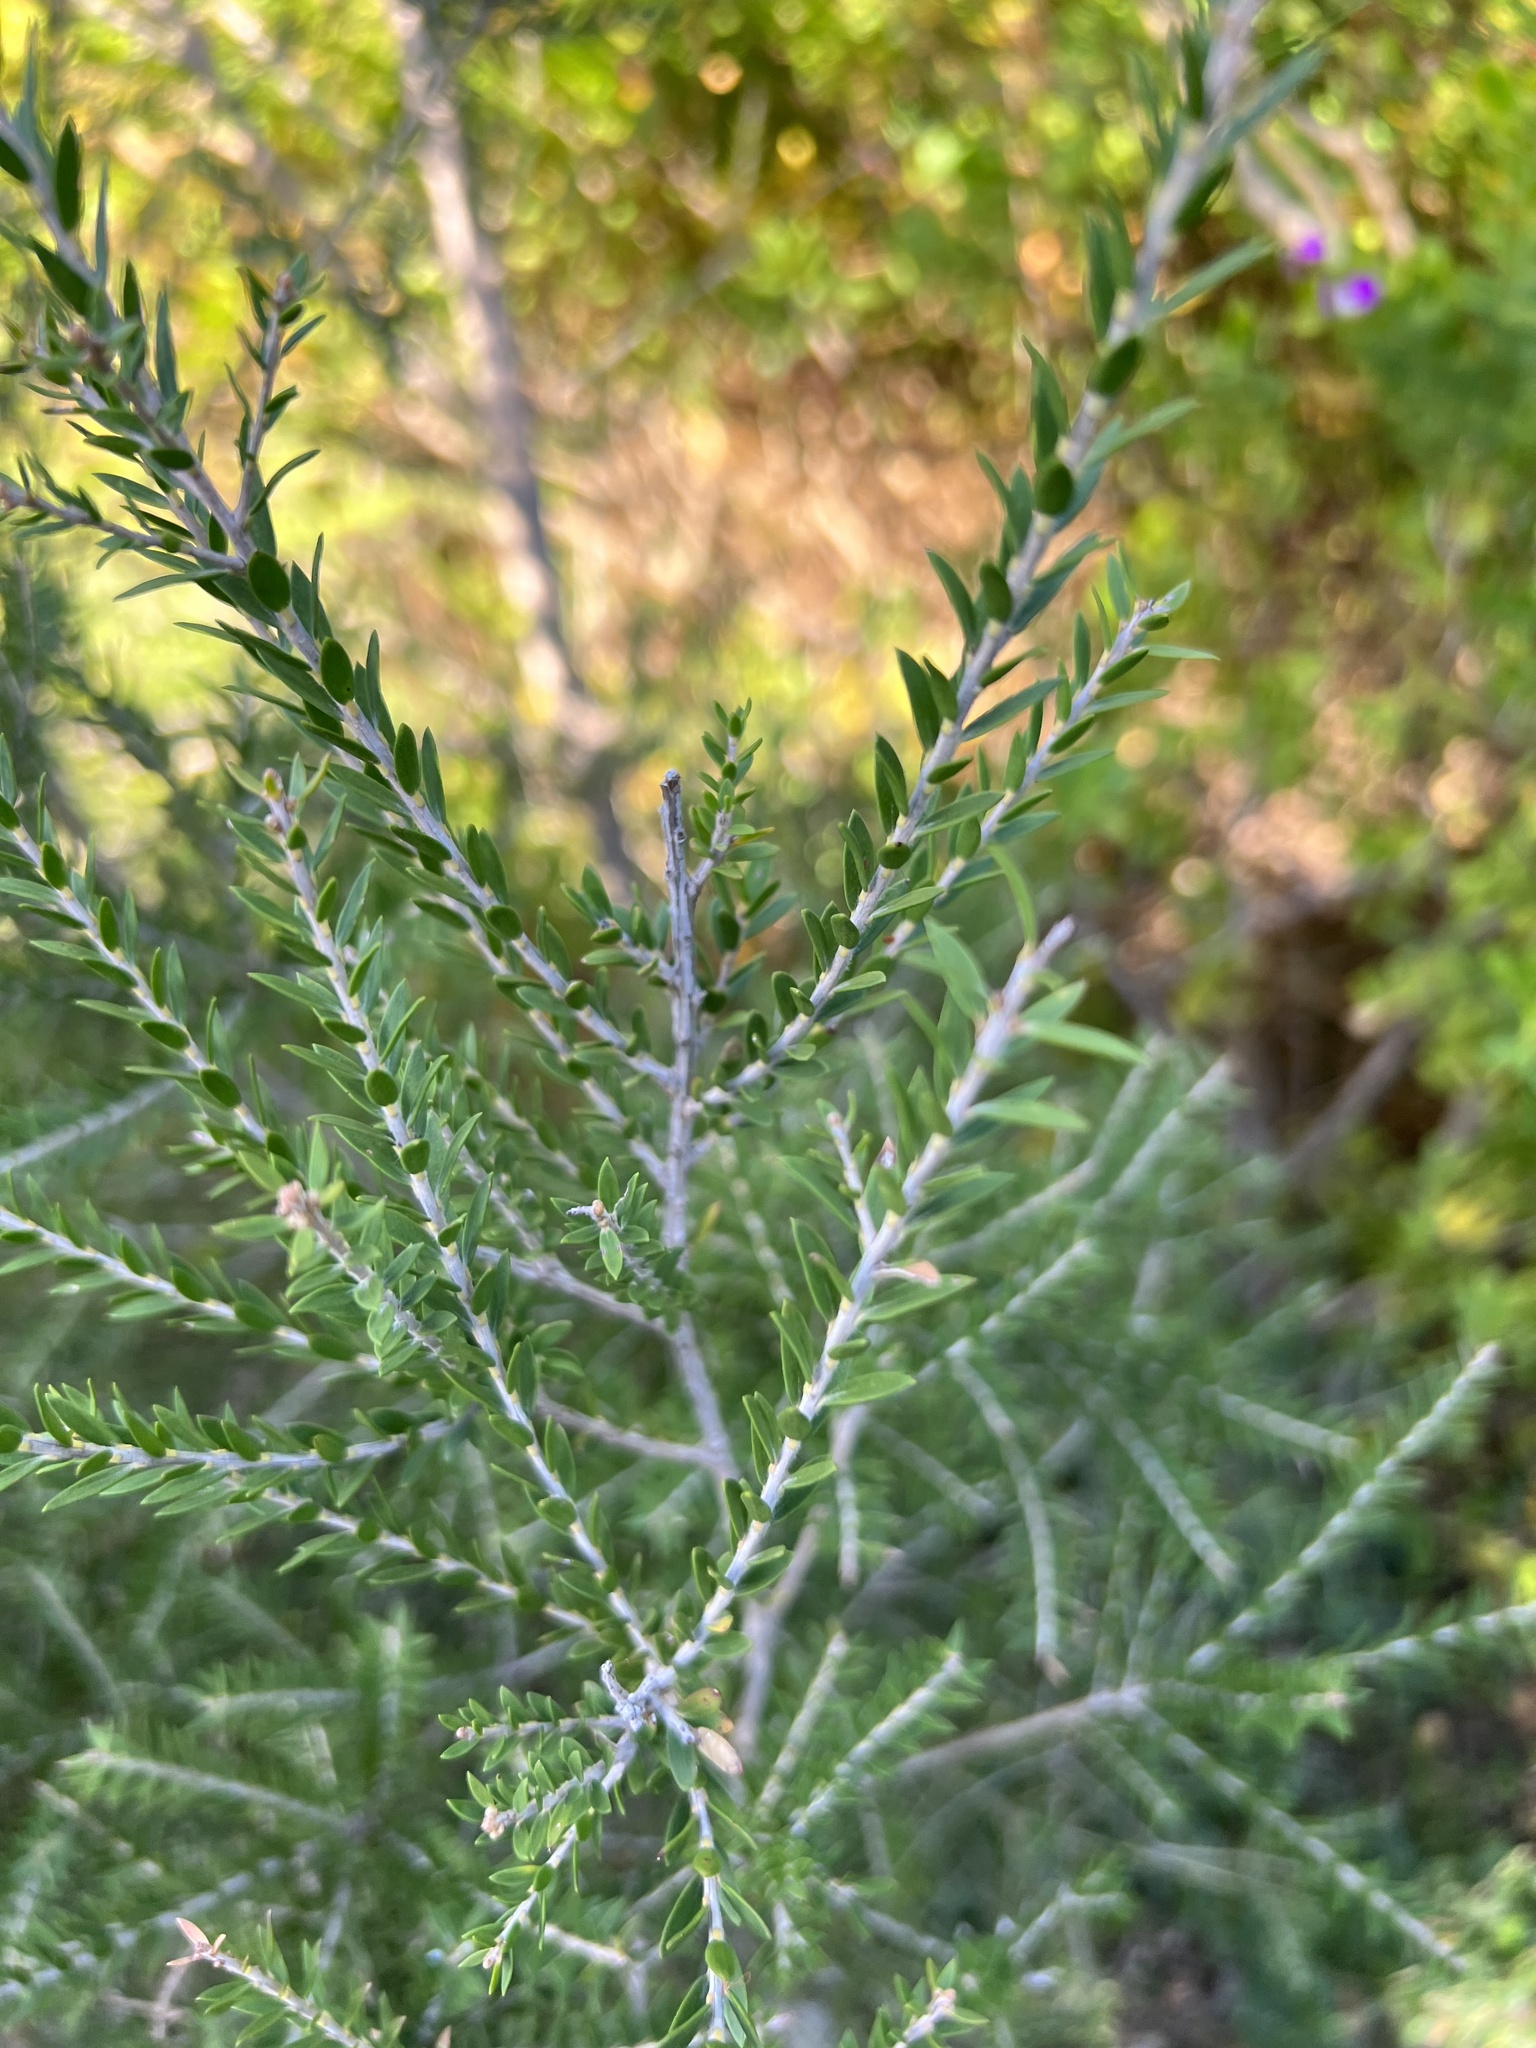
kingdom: Plantae
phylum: Tracheophyta
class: Magnoliopsida
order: Myrtales
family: Myrtaceae
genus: Melaleuca
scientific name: Melaleuca lanceolata
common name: Rottnest island teatree
